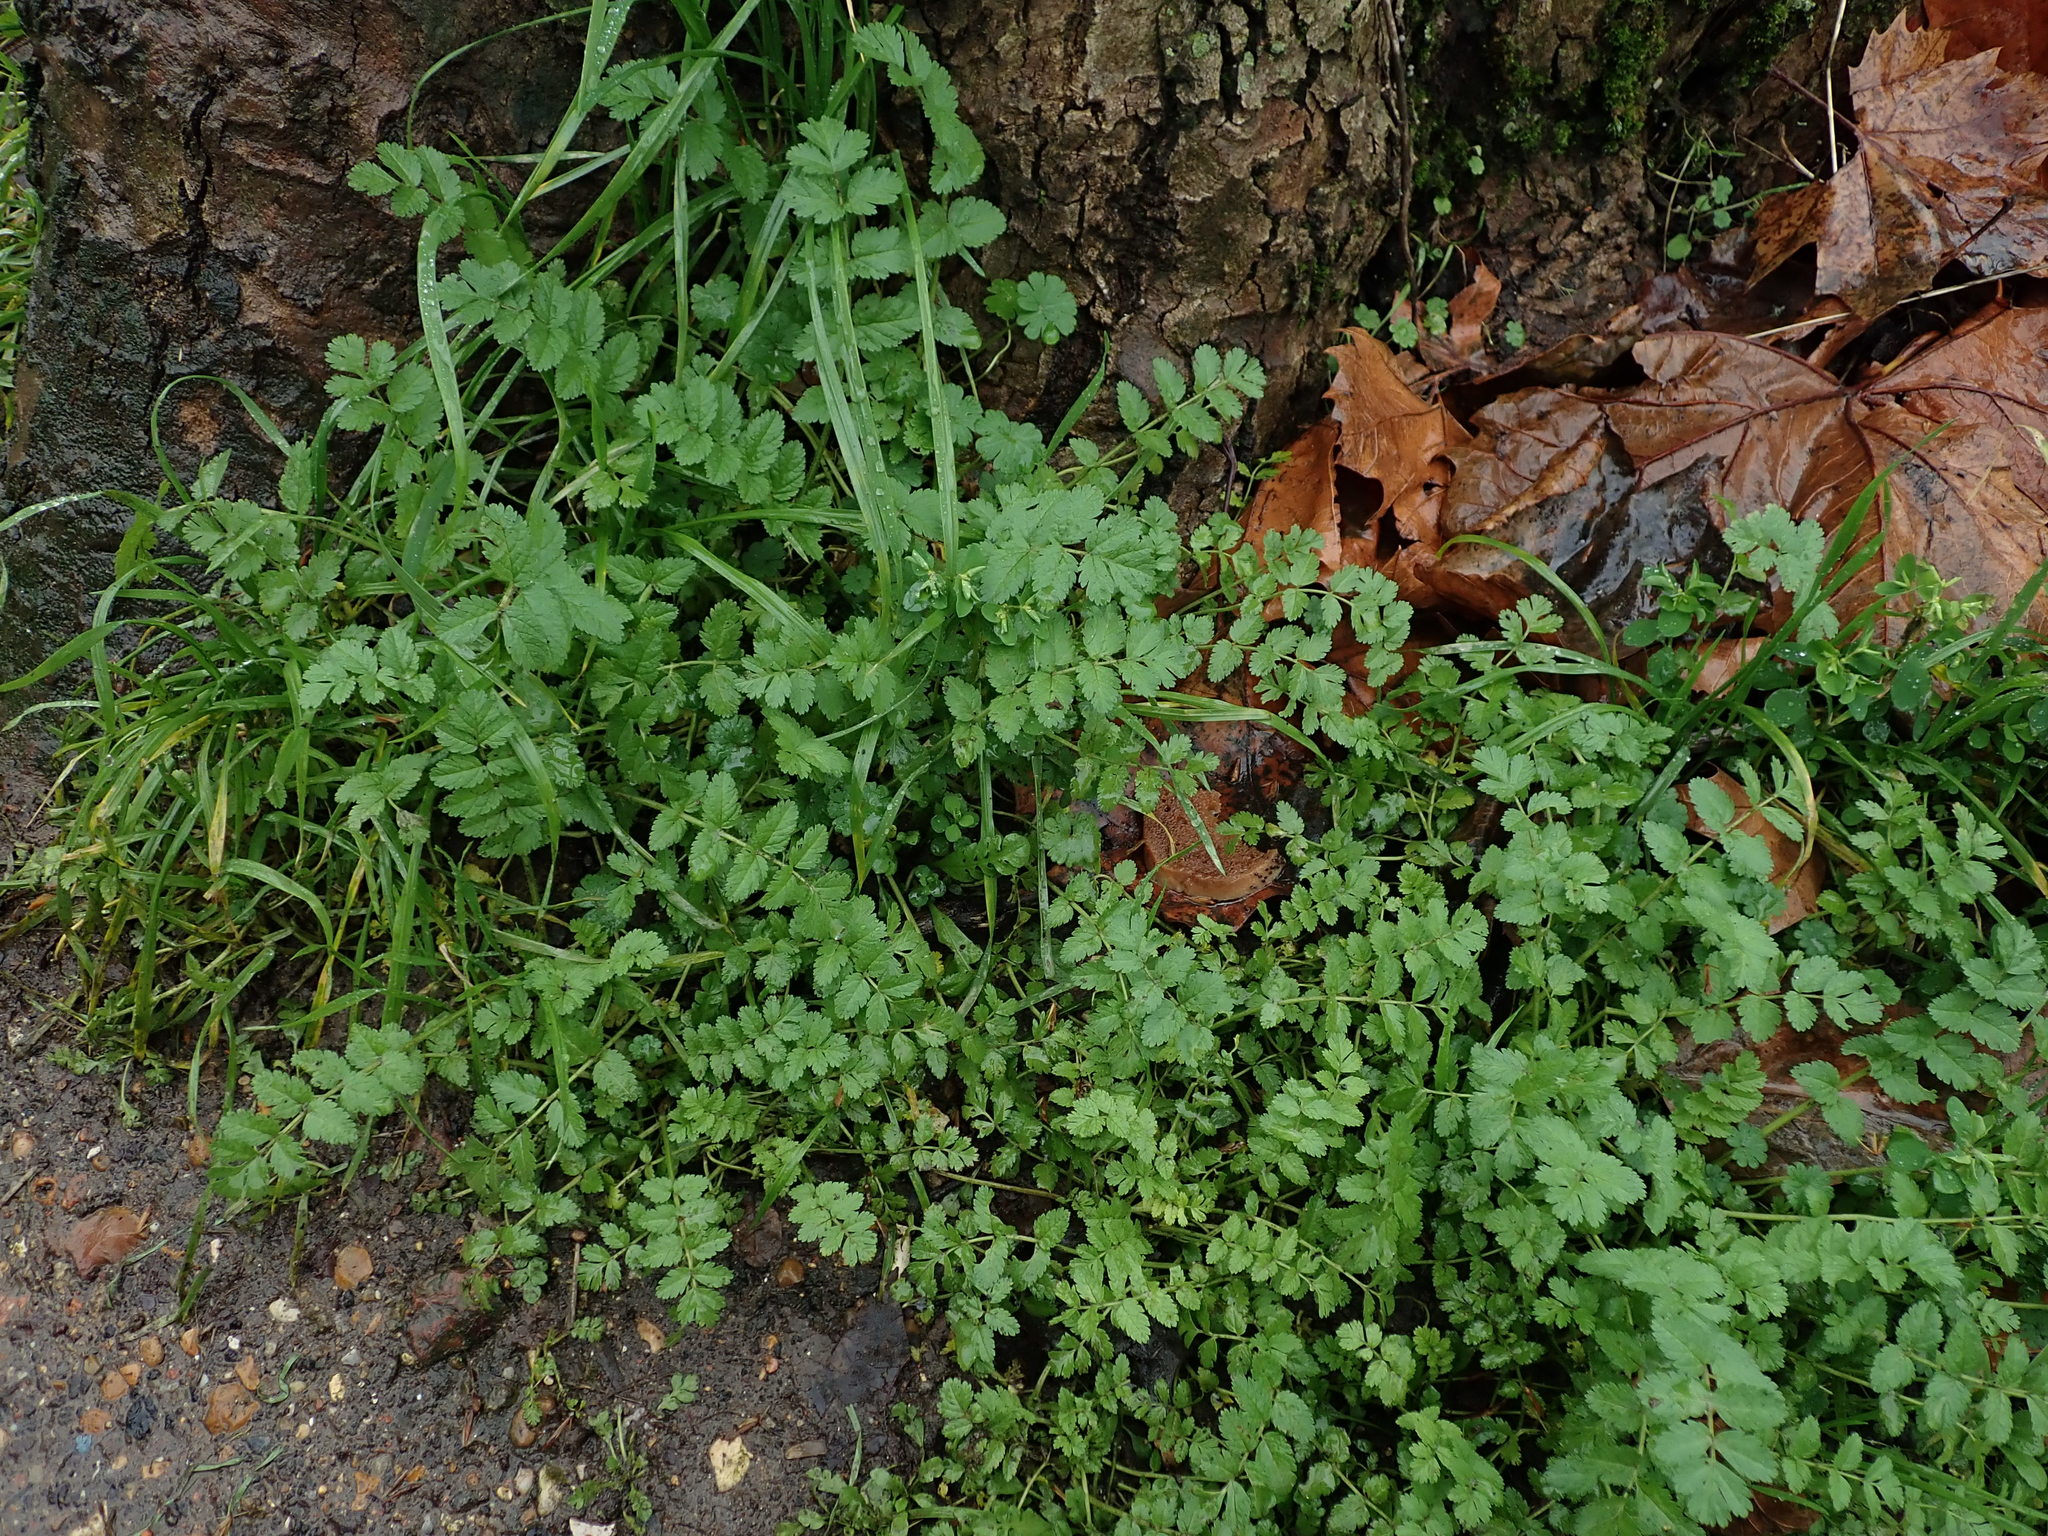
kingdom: Plantae
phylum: Tracheophyta
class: Magnoliopsida
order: Geraniales
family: Geraniaceae
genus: Erodium
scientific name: Erodium moschatum
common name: Musk stork's-bill
